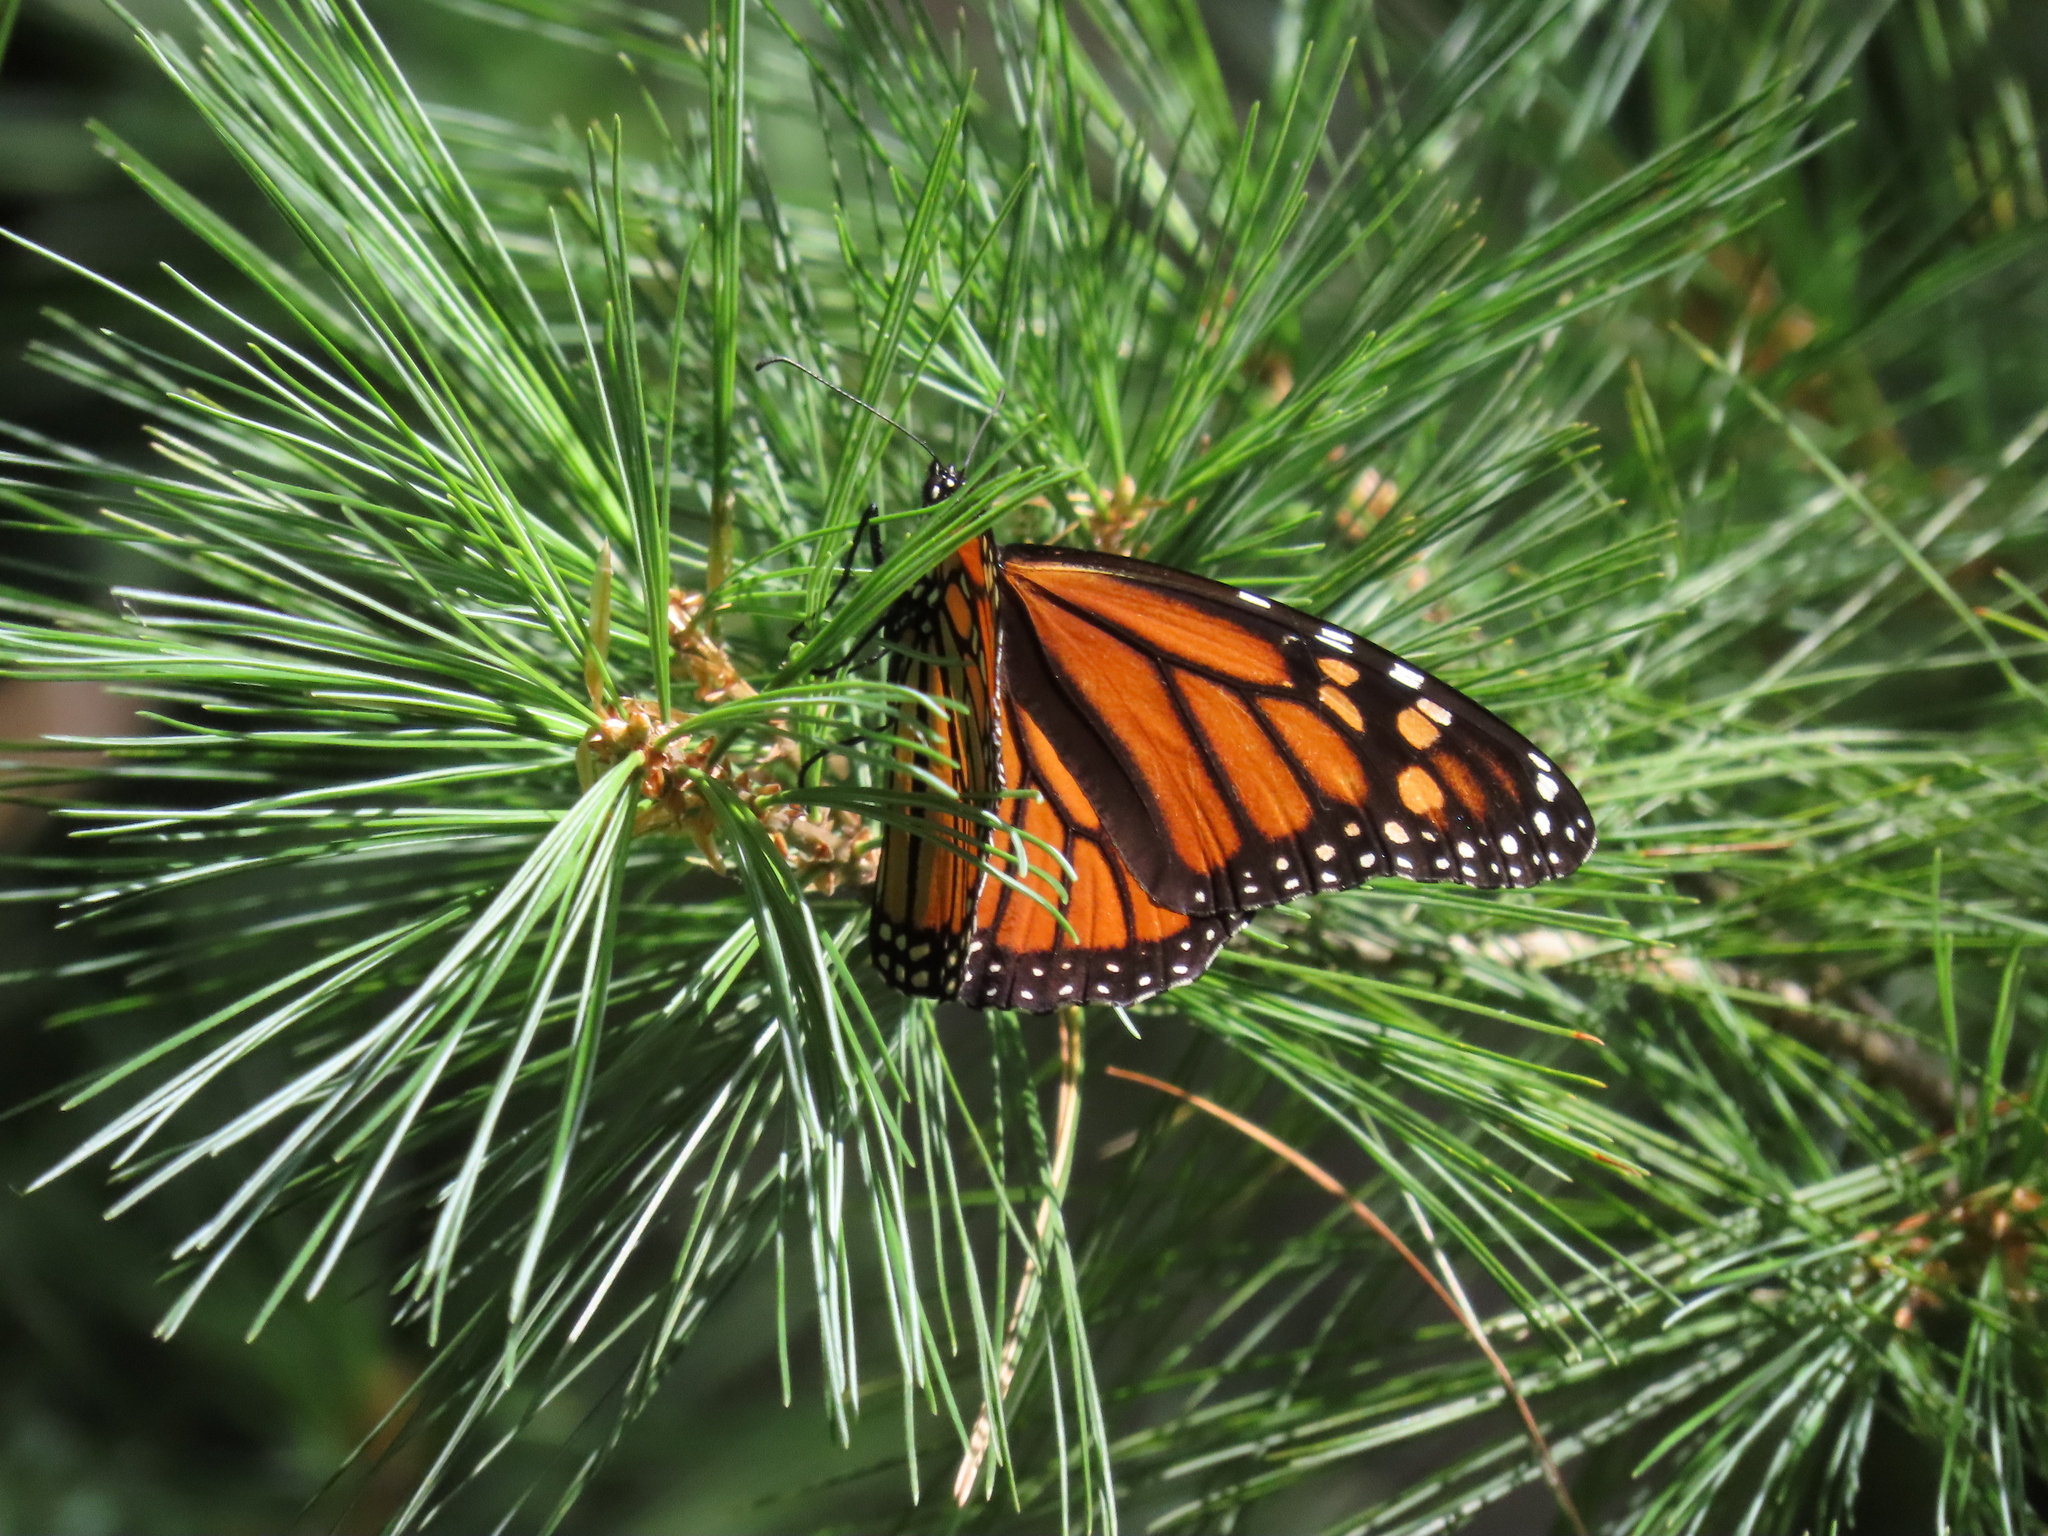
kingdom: Animalia
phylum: Arthropoda
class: Insecta
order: Lepidoptera
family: Nymphalidae
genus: Danaus
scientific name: Danaus plexippus
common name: Monarch
